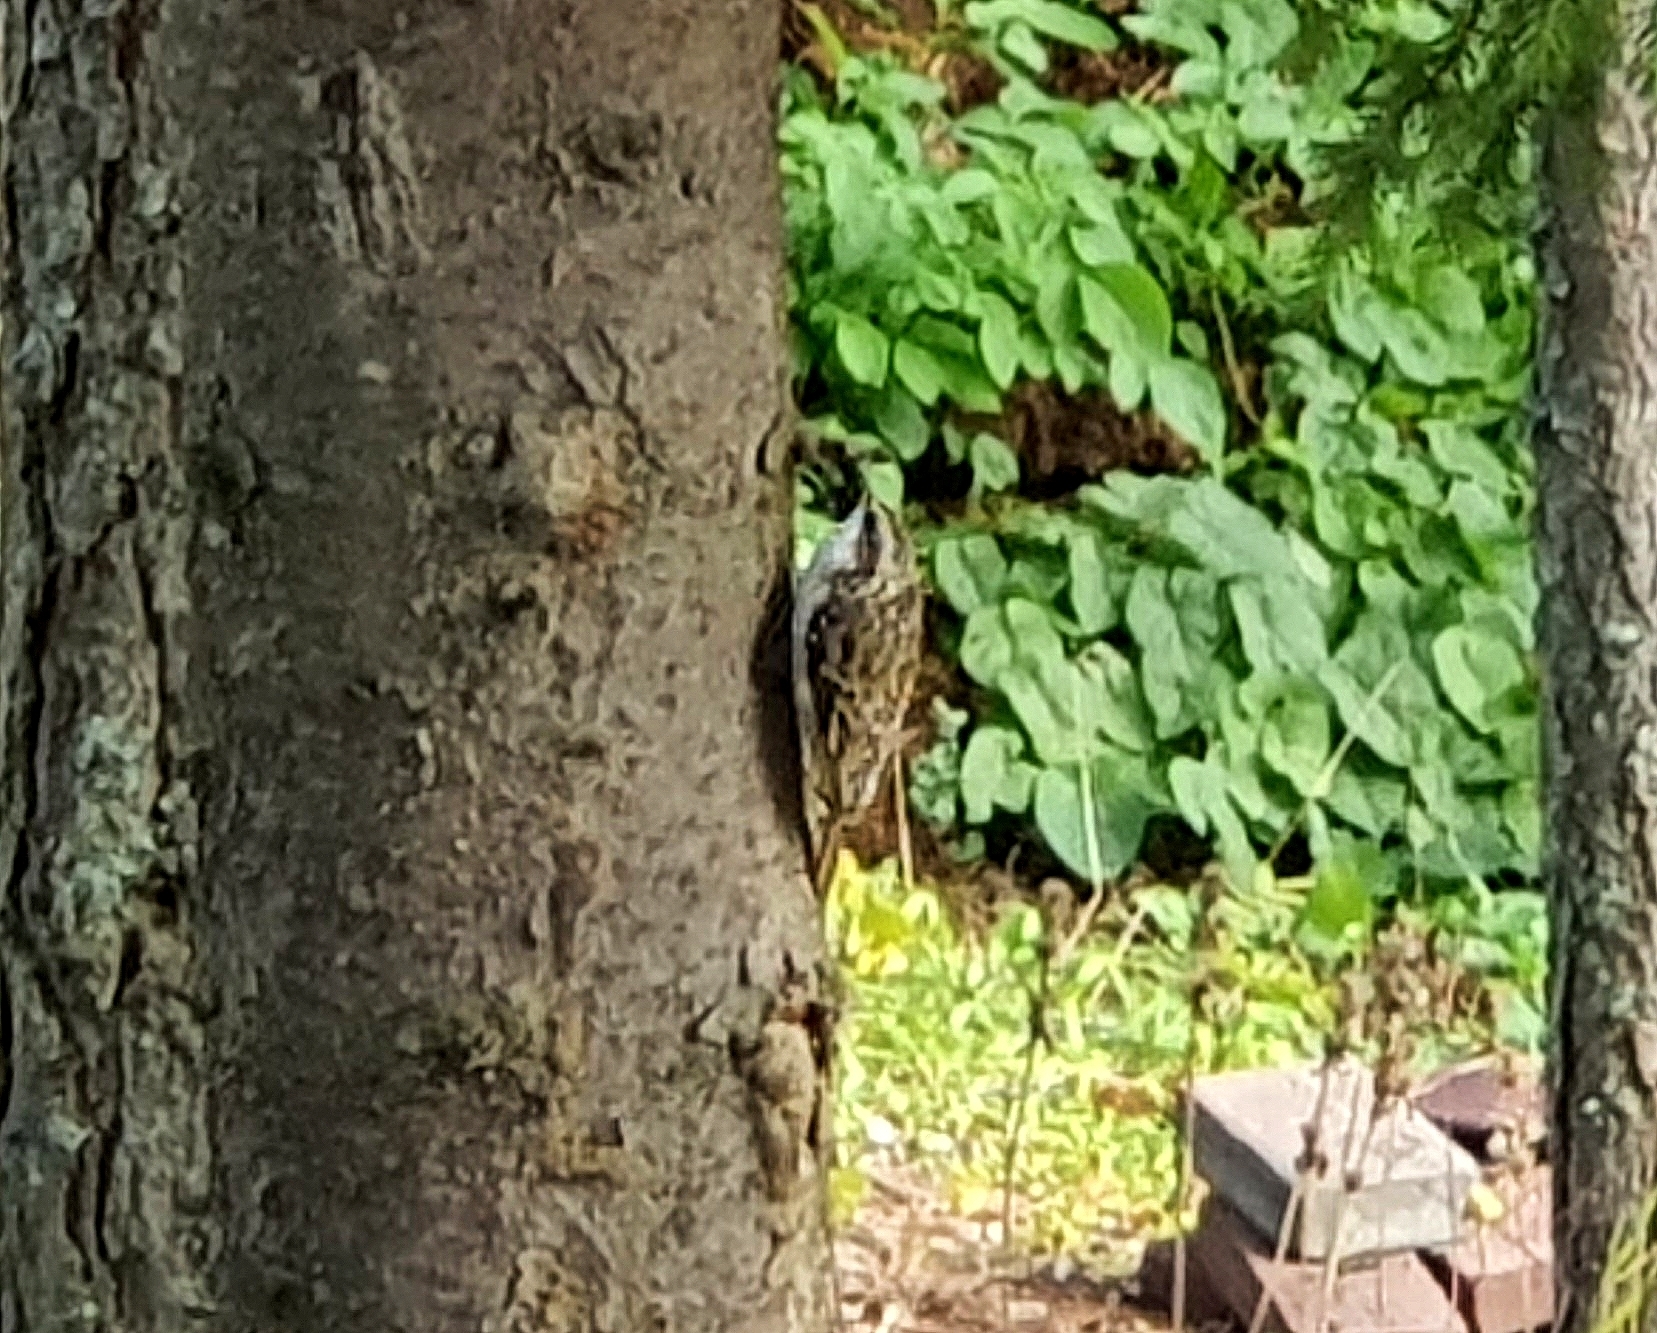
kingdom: Animalia
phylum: Chordata
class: Aves
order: Passeriformes
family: Certhiidae
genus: Certhia
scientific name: Certhia familiaris
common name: Eurasian treecreeper
